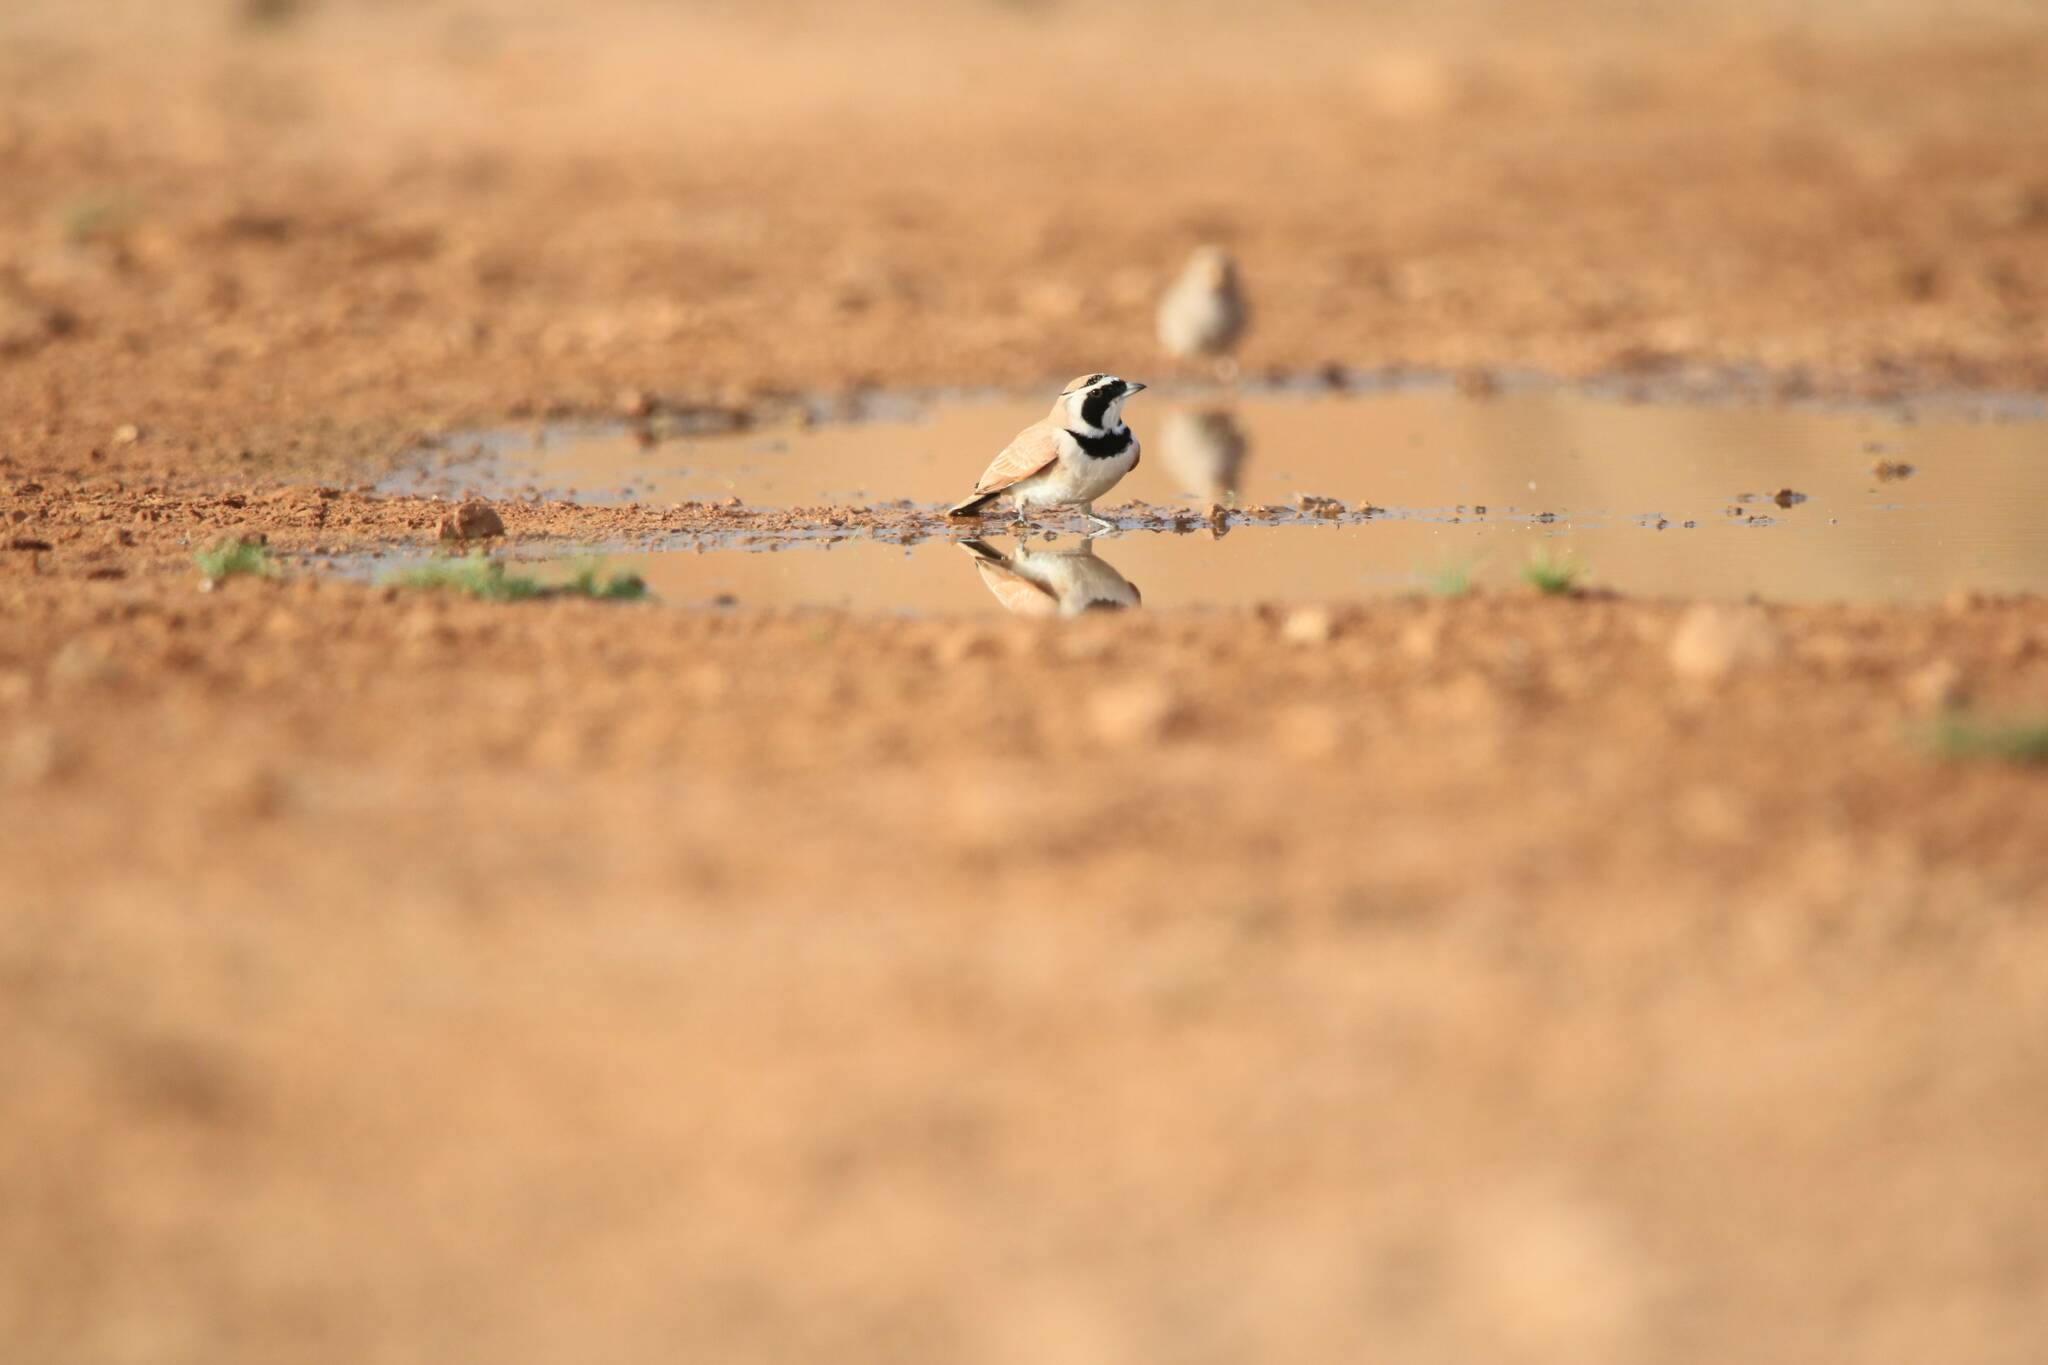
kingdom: Animalia
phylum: Chordata
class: Aves
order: Passeriformes
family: Alaudidae
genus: Eremophila
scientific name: Eremophila bilopha
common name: Temminck's lark
